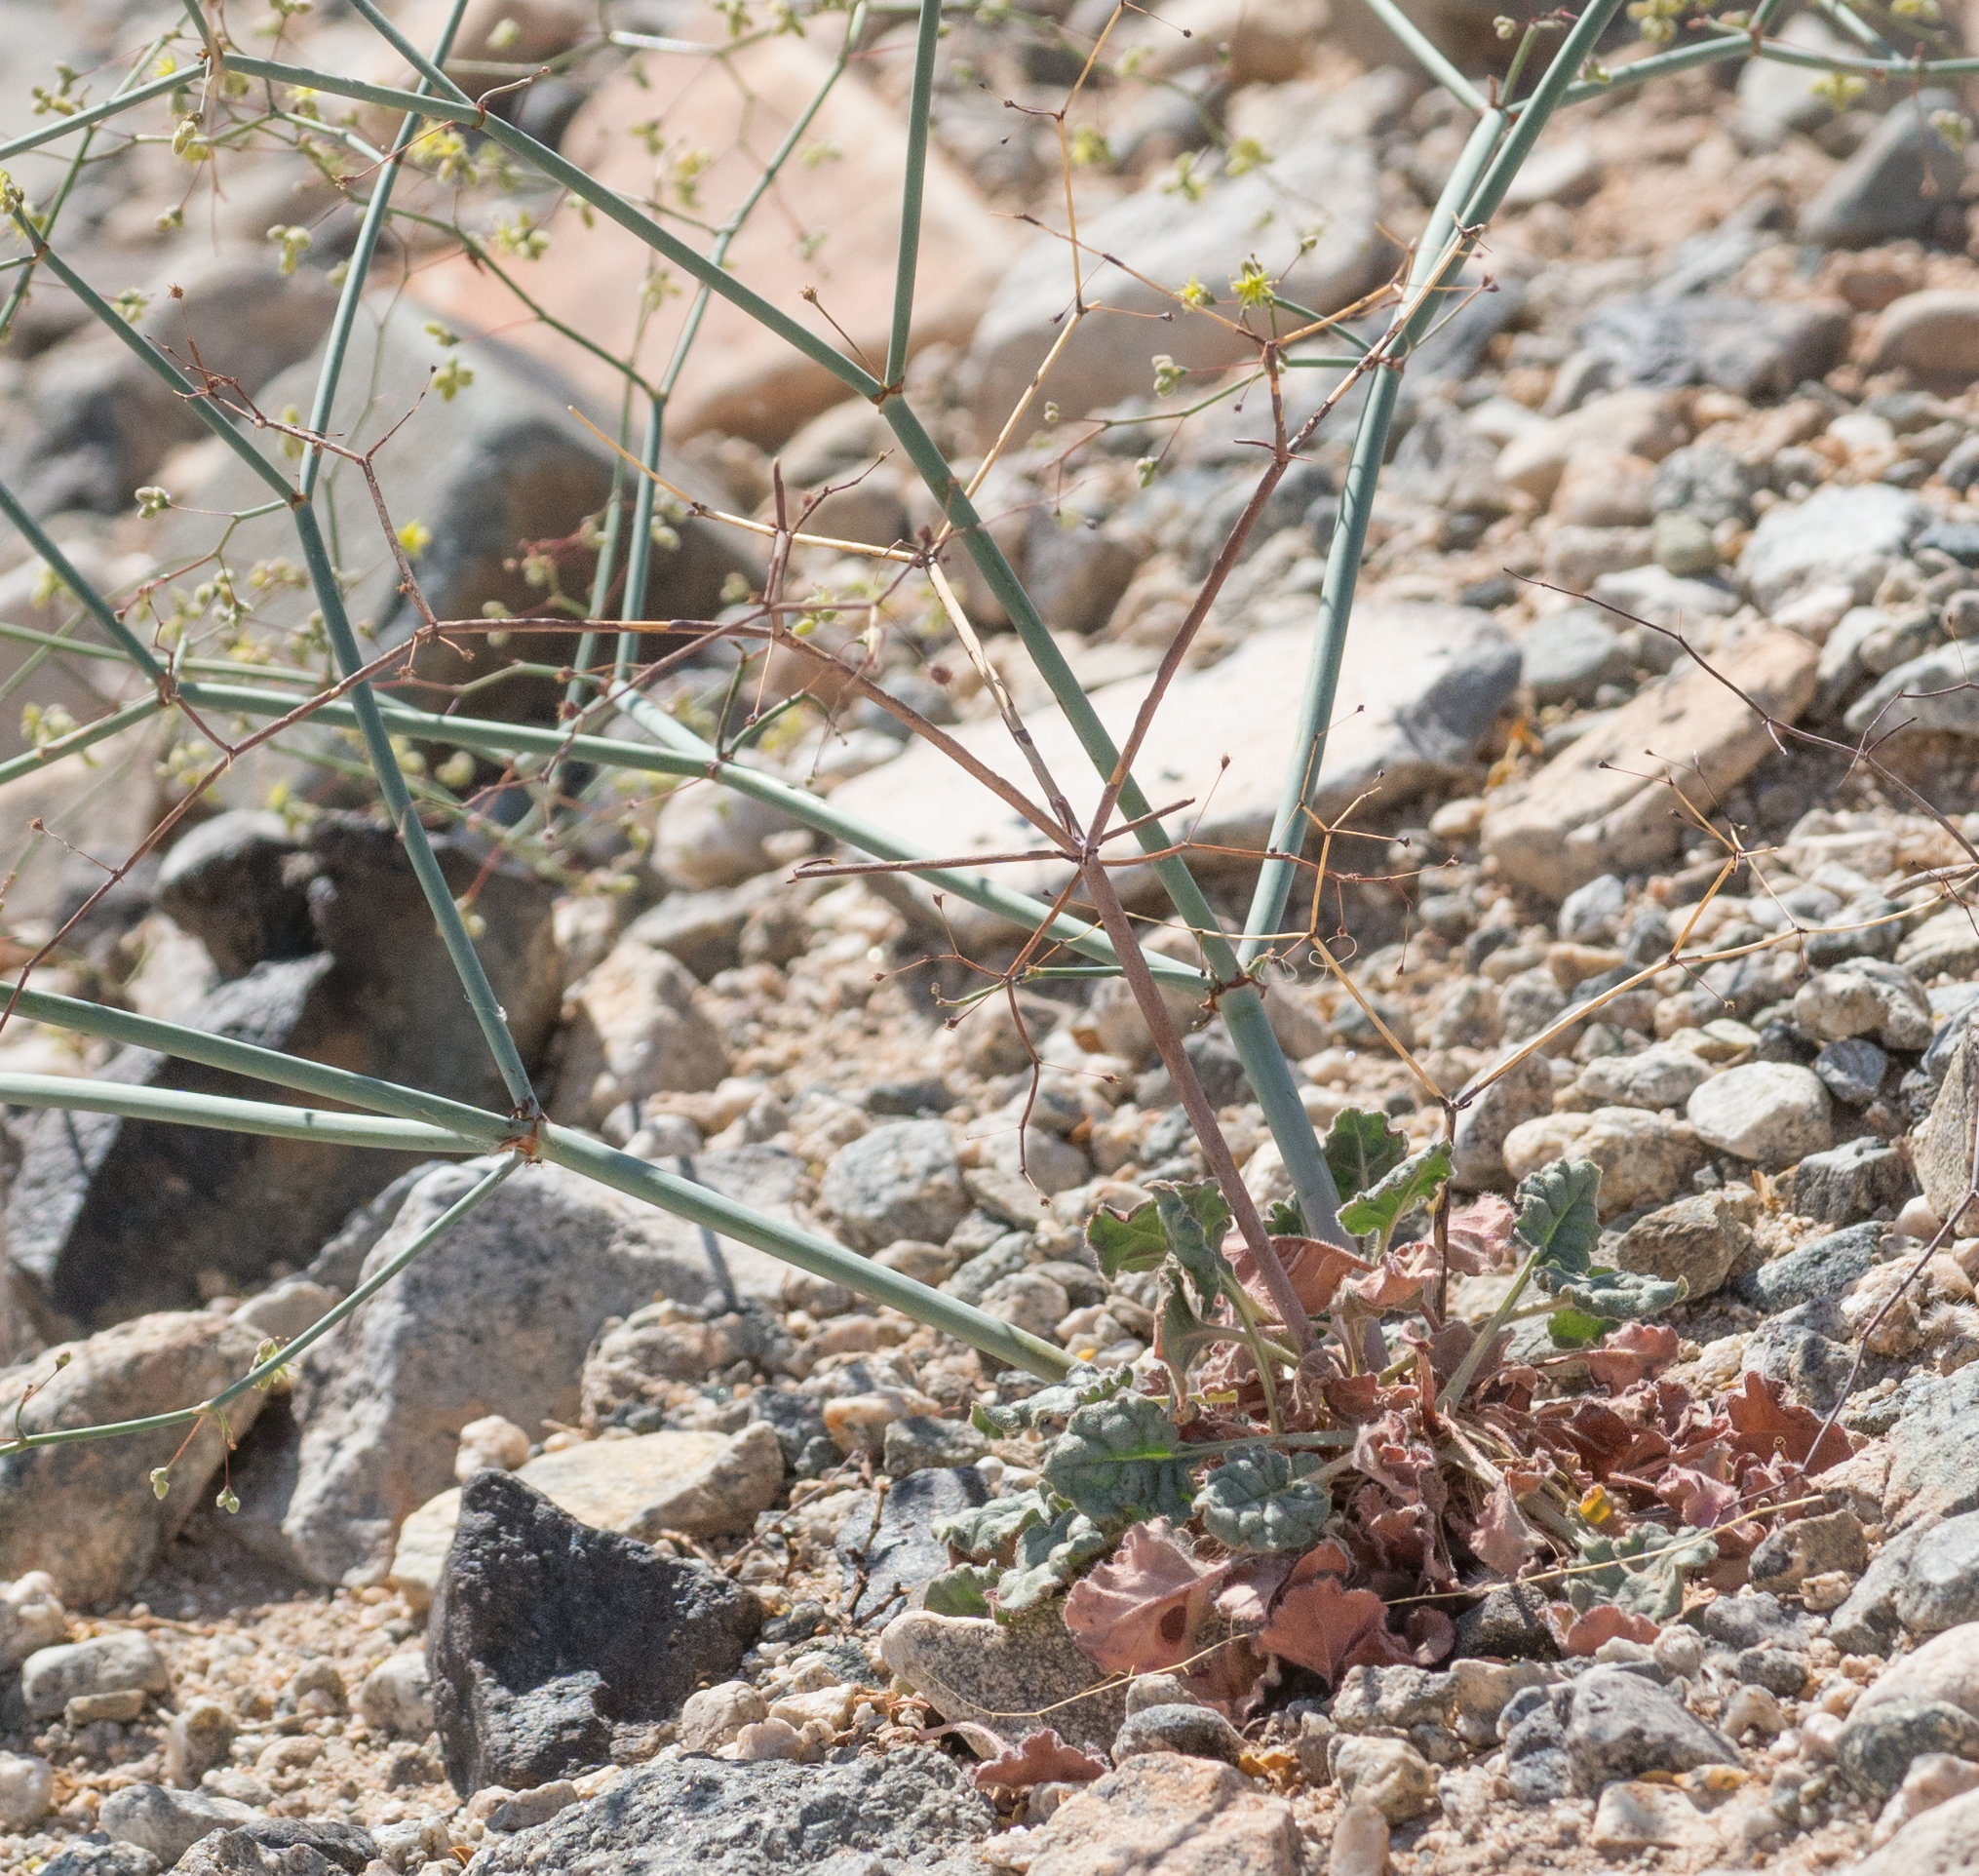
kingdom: Plantae
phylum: Tracheophyta
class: Magnoliopsida
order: Caryophyllales
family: Polygonaceae
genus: Eriogonum
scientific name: Eriogonum inflatum
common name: Desert trumpet
